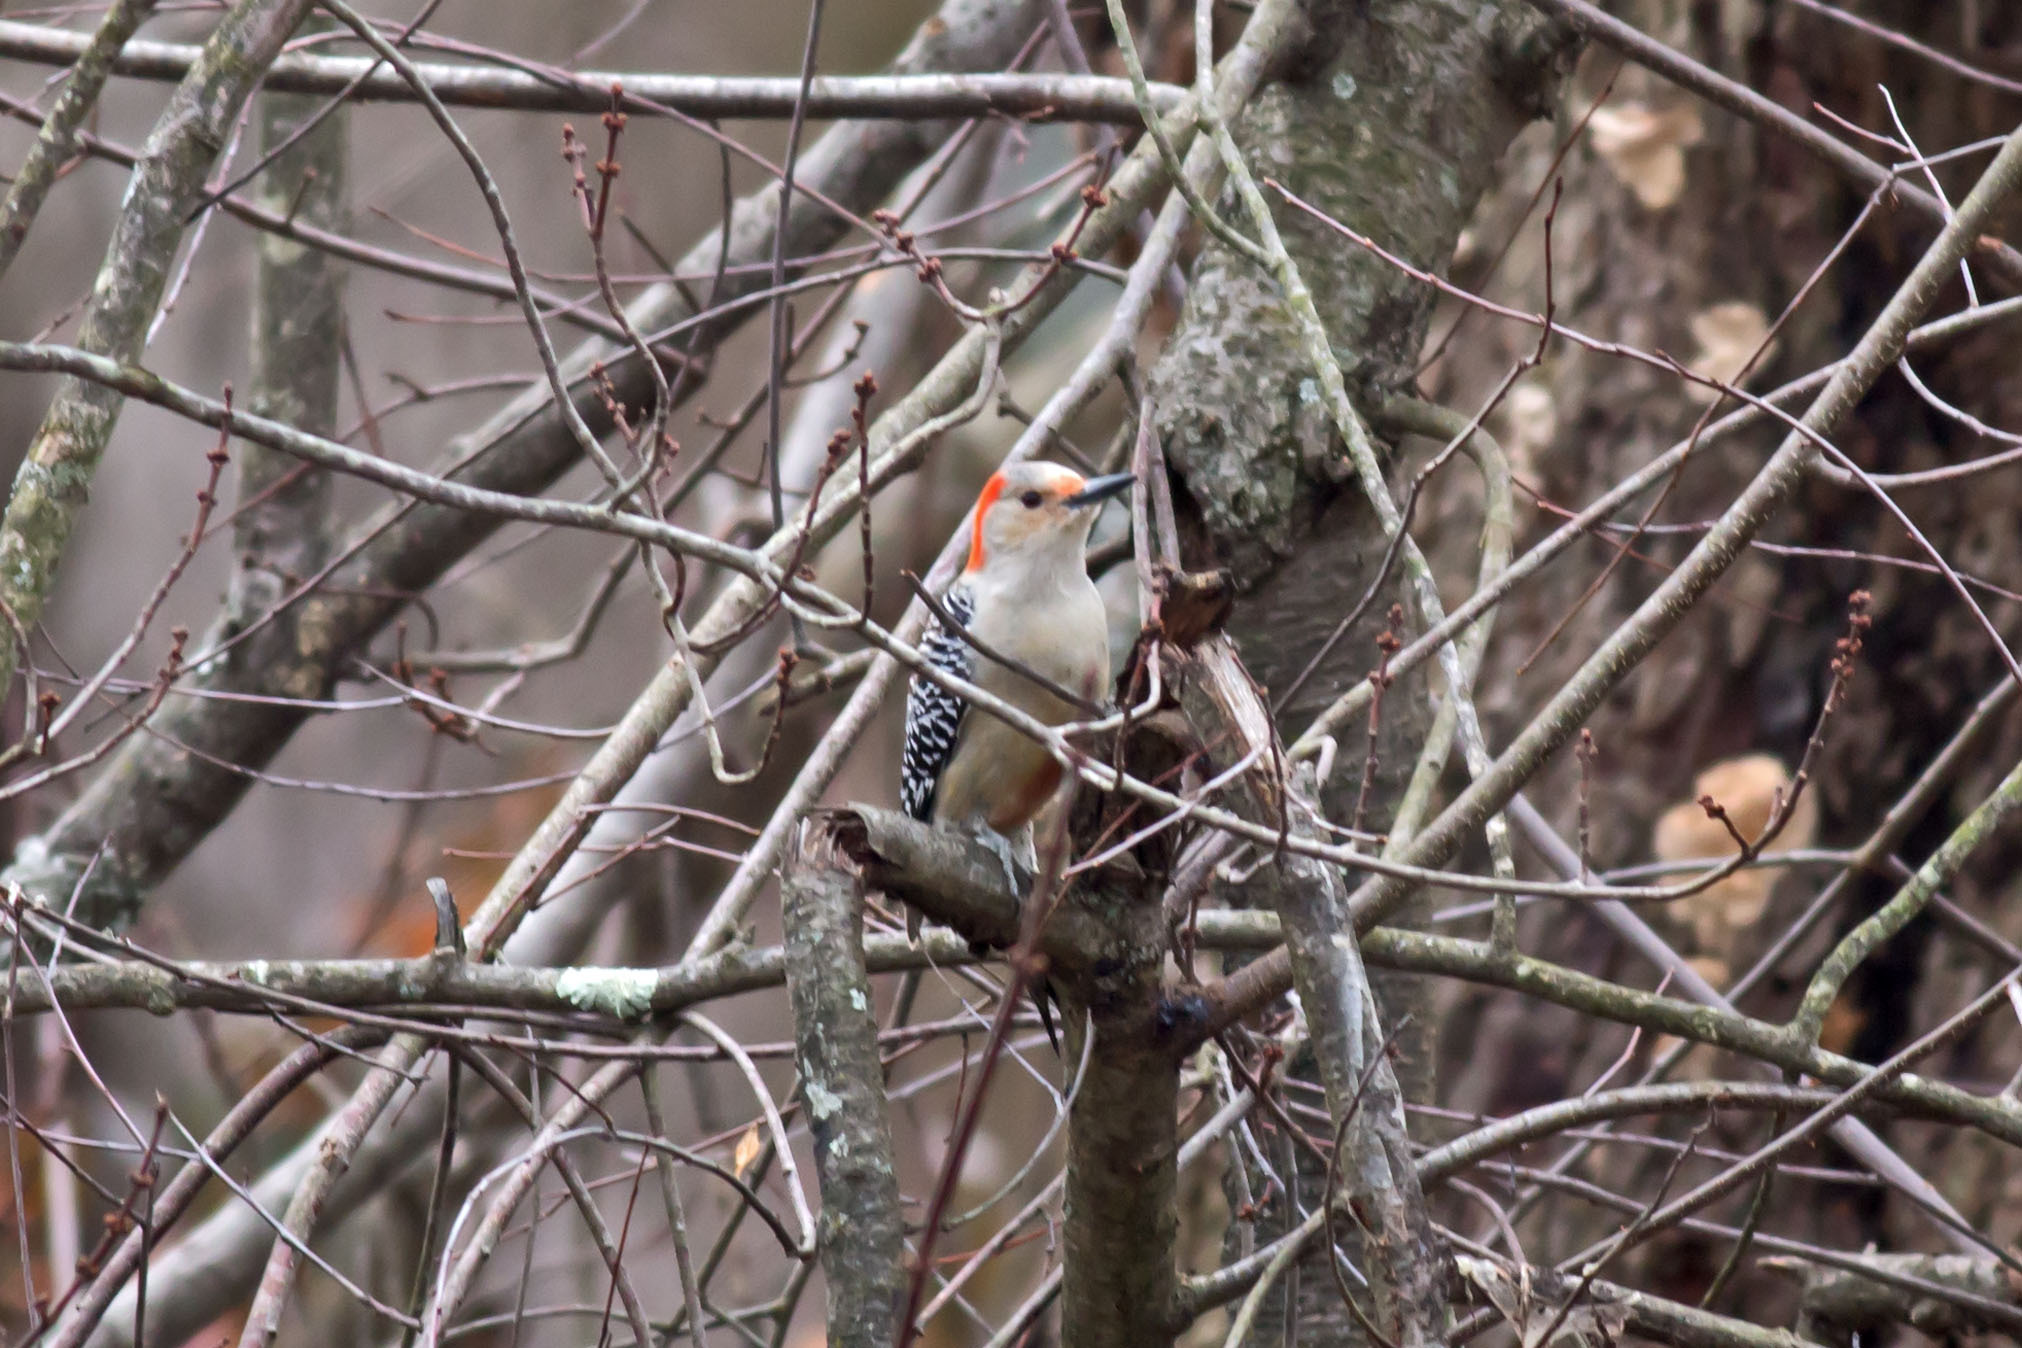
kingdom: Animalia
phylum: Chordata
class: Aves
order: Piciformes
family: Picidae
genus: Melanerpes
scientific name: Melanerpes carolinus
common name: Red-bellied woodpecker
